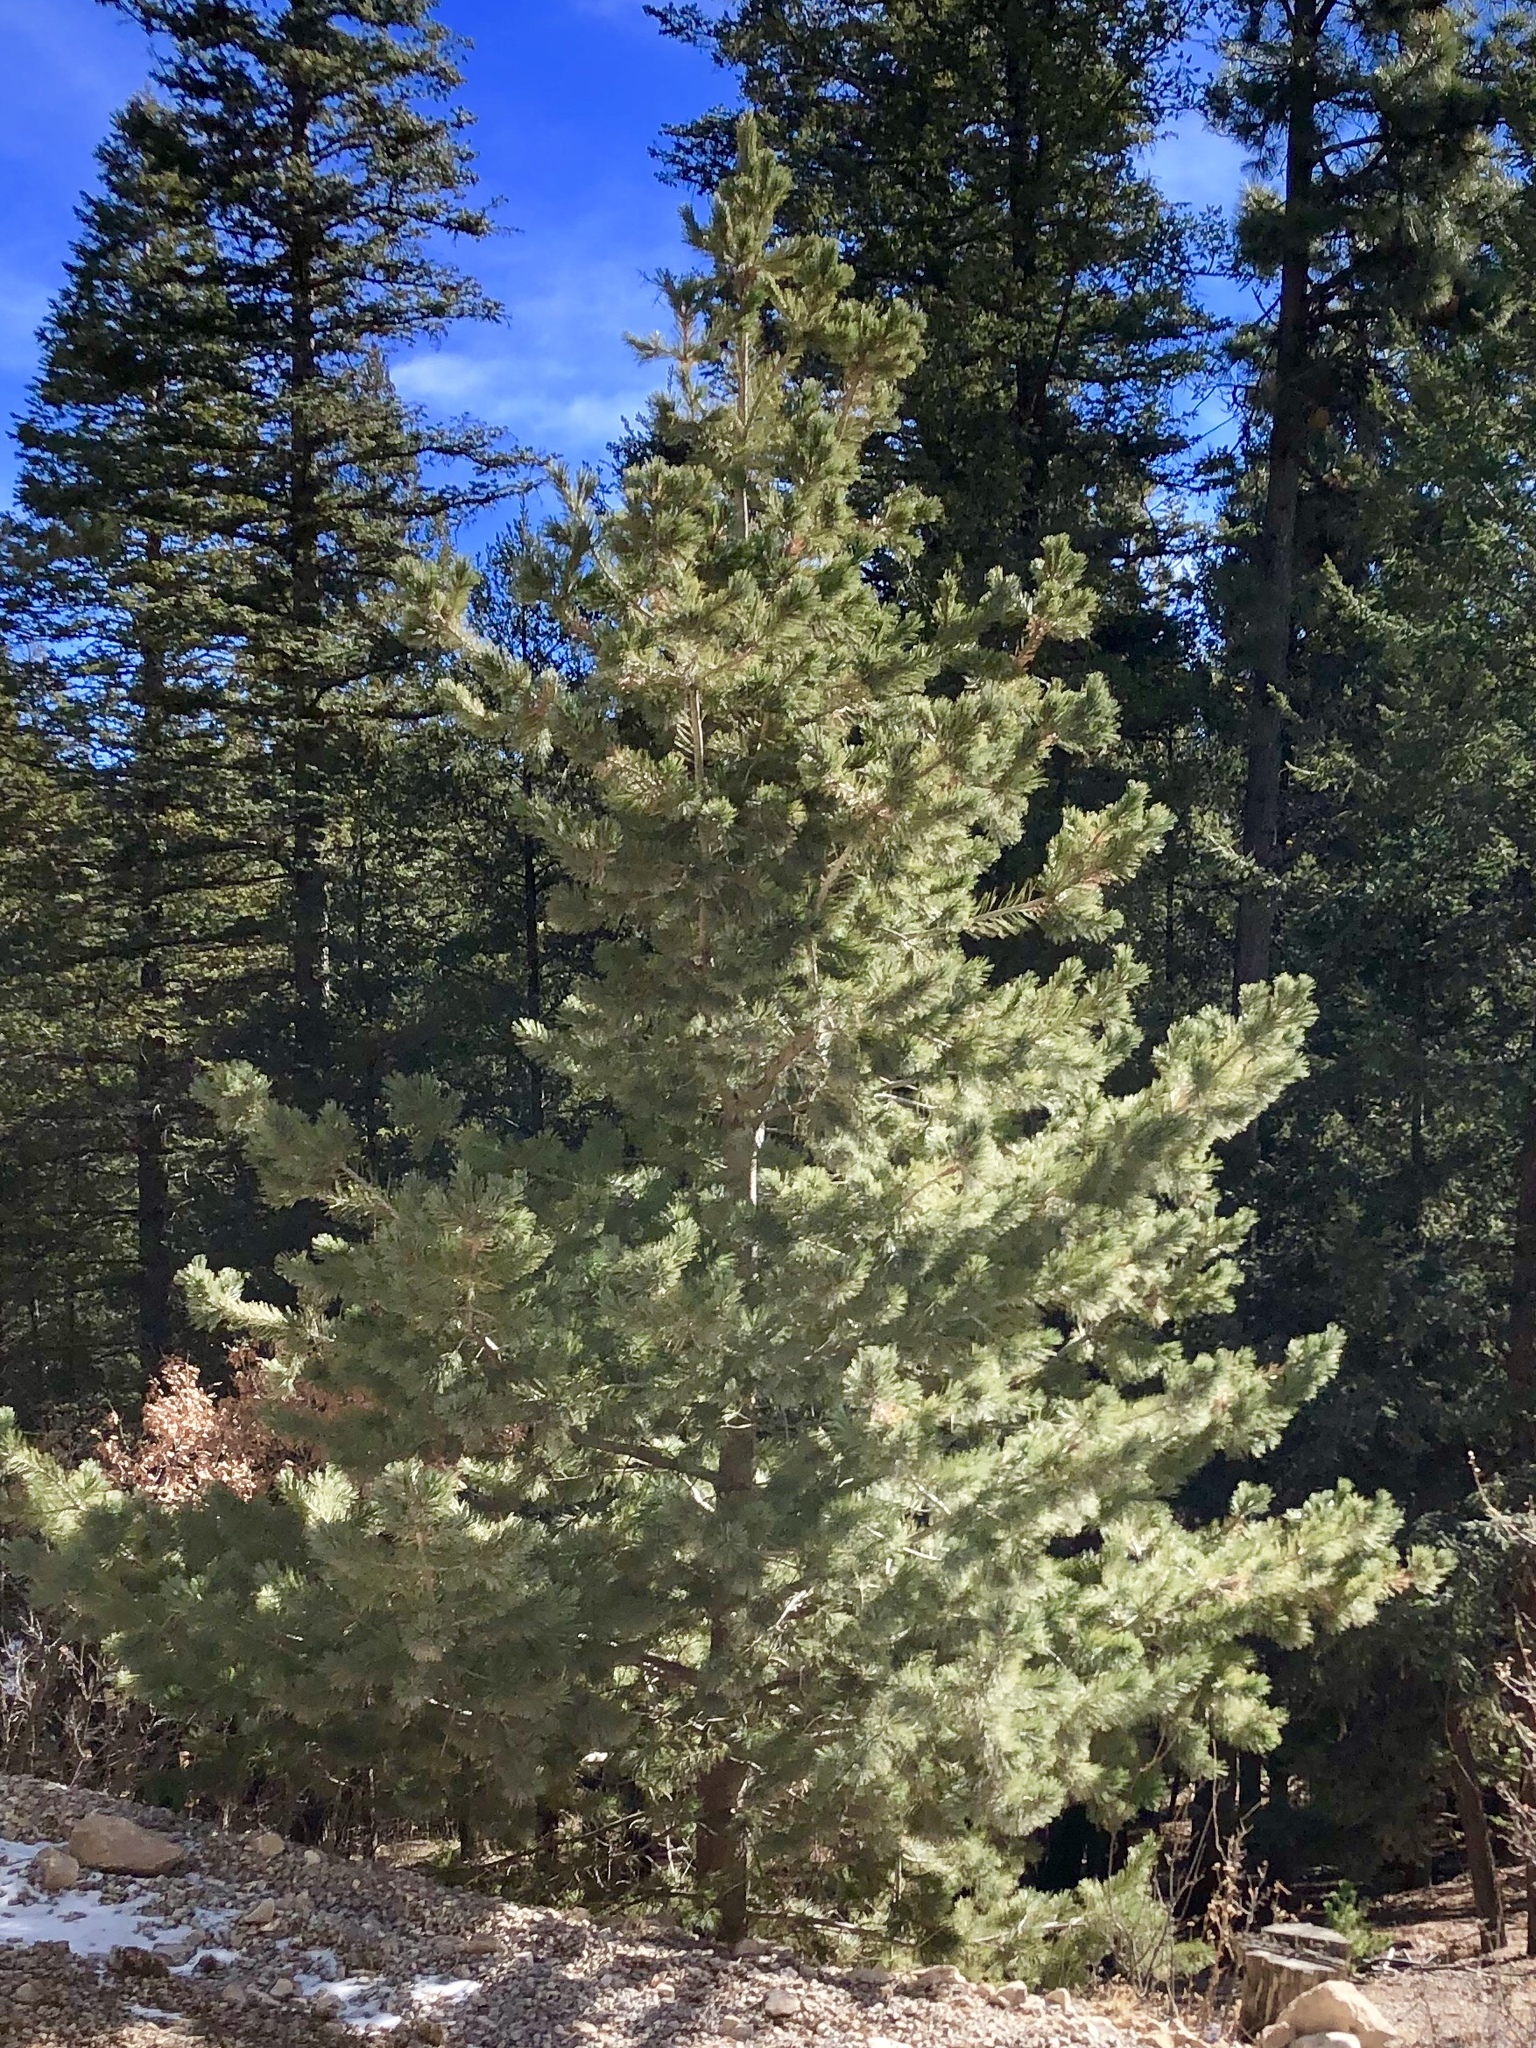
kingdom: Plantae
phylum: Tracheophyta
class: Pinopsida
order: Pinales
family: Pinaceae
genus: Pinus
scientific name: Pinus strobiformis
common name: Southwestern white pine
